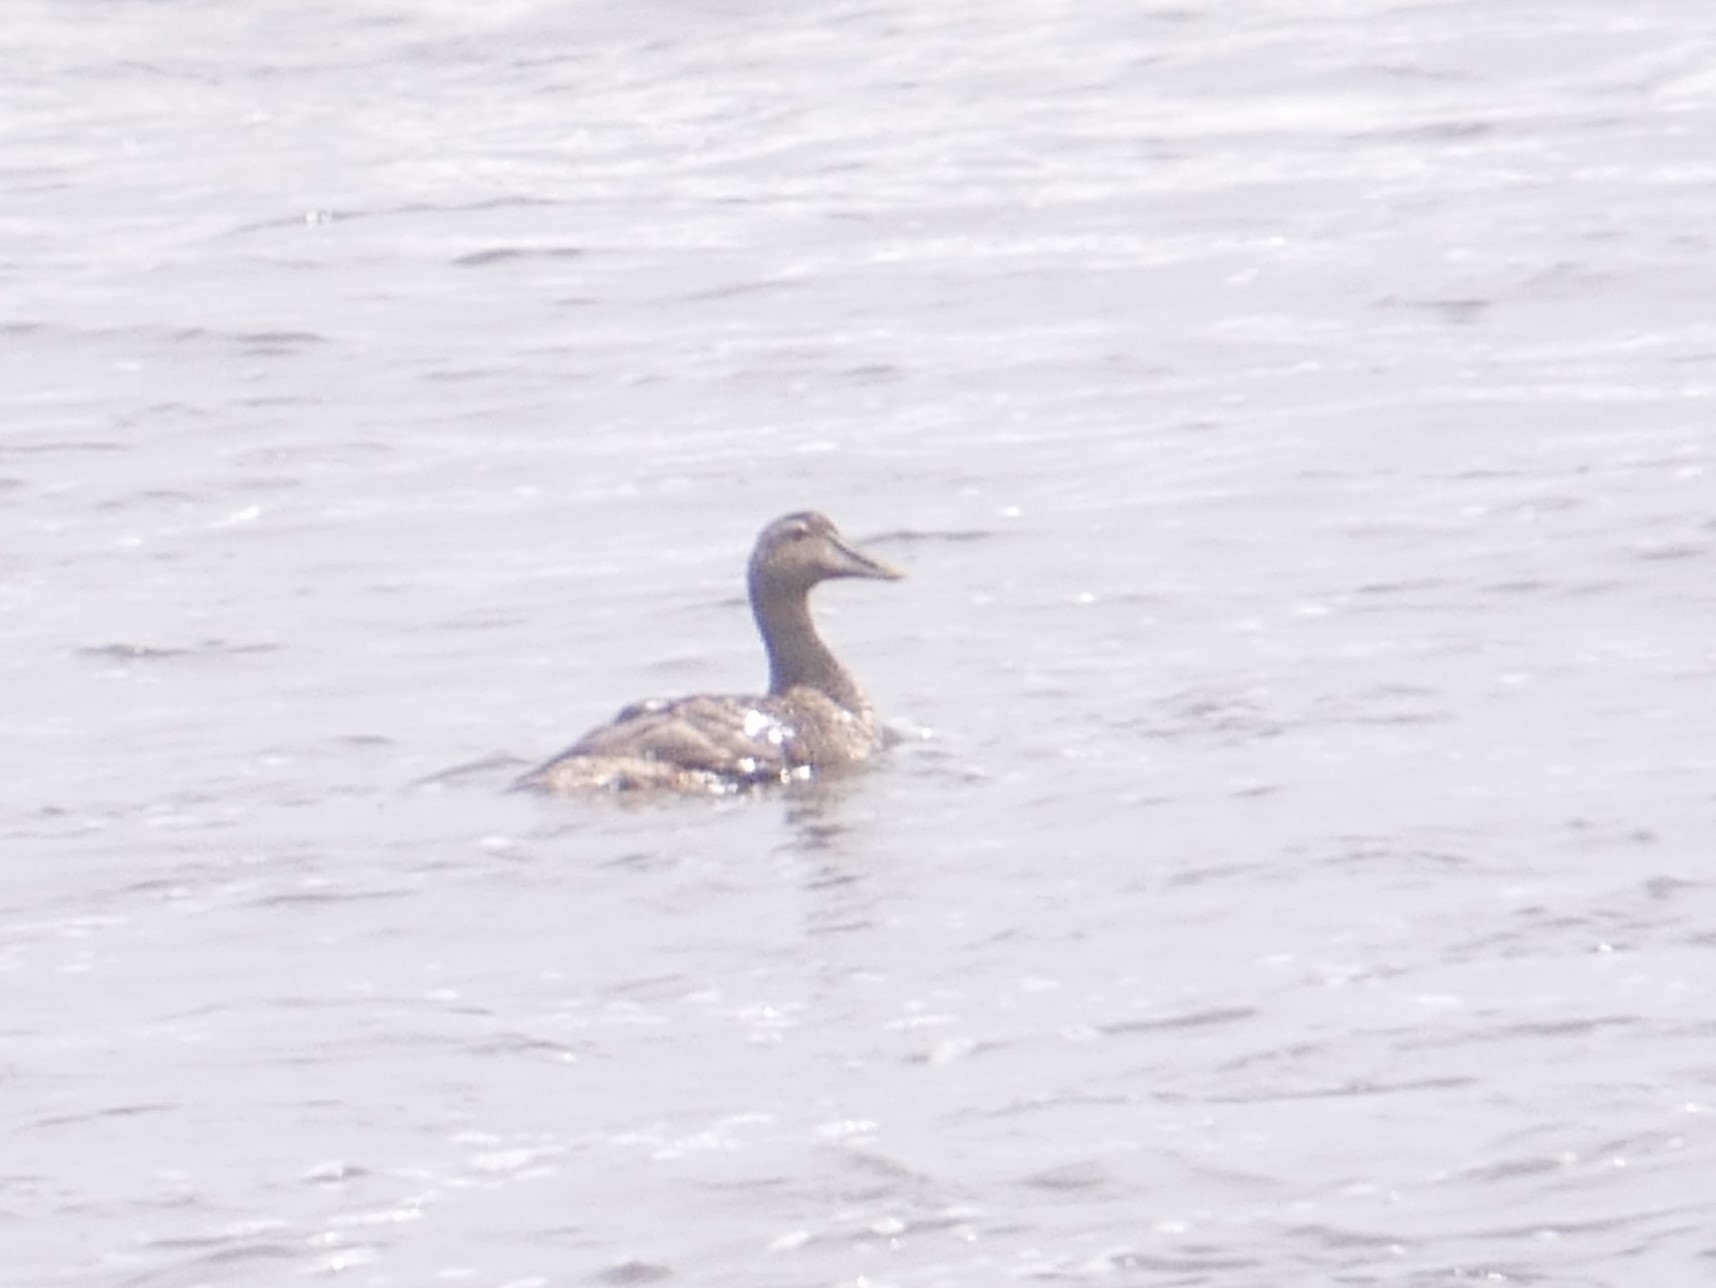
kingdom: Animalia
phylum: Chordata
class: Aves
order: Anseriformes
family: Anatidae
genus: Somateria
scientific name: Somateria mollissima
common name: Common eider
